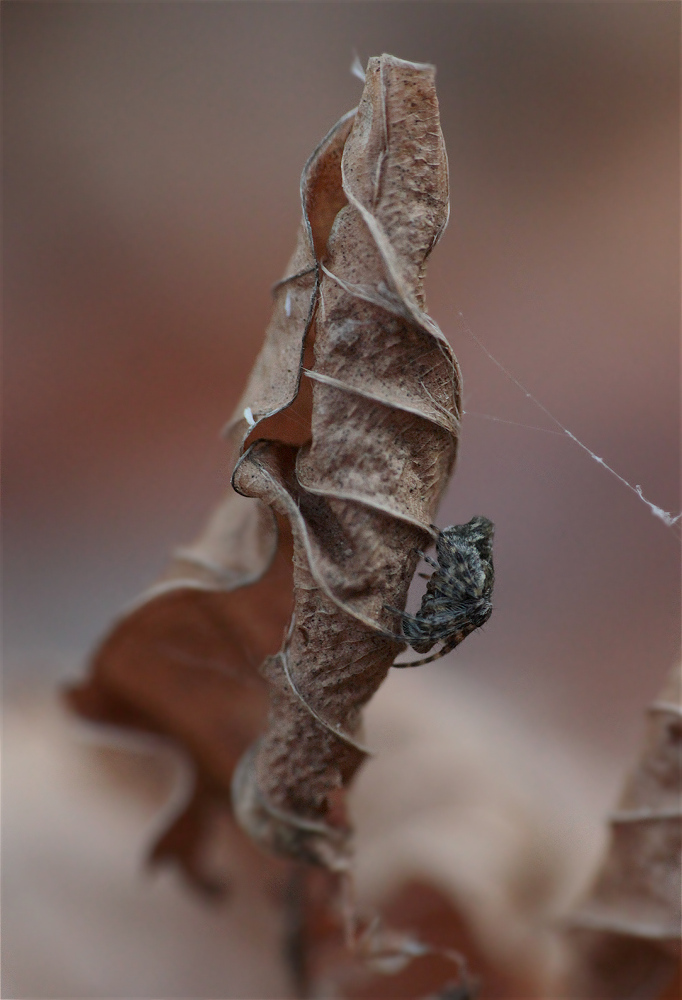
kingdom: Animalia
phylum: Arthropoda
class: Arachnida
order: Araneae
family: Araneidae
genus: Cyclosa
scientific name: Cyclosa conica
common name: Conical trashline orbweaver
